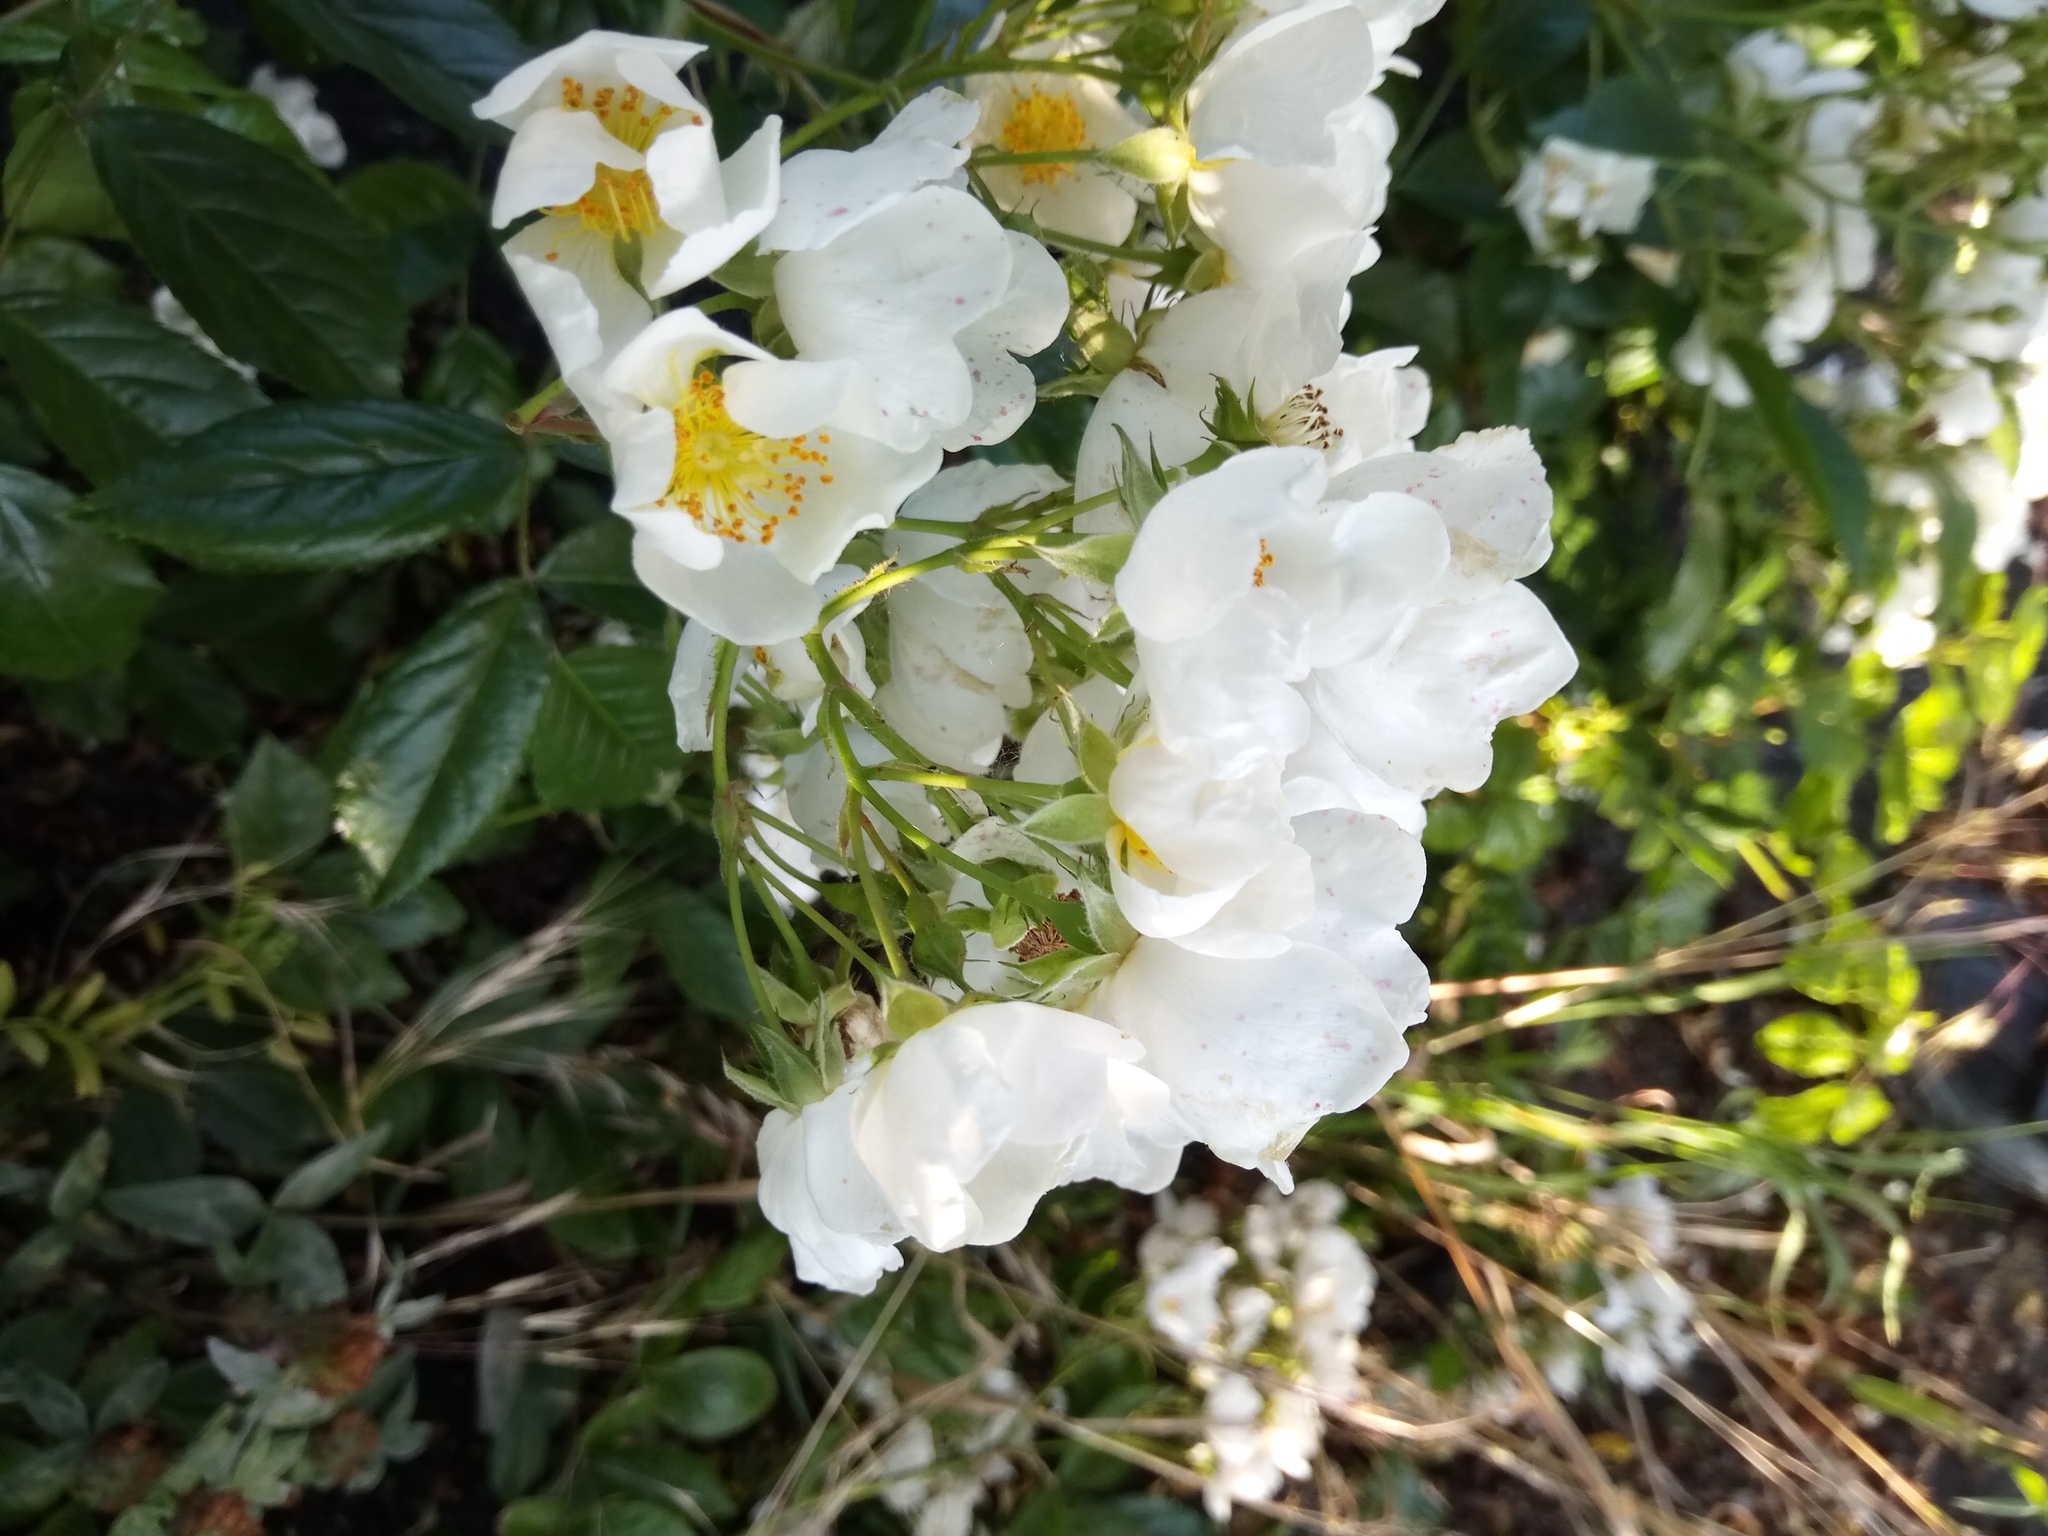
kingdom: Plantae
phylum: Tracheophyta
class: Magnoliopsida
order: Rosales
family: Rosaceae
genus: Rosa
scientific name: Rosa multiflora
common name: Multiflora rose
